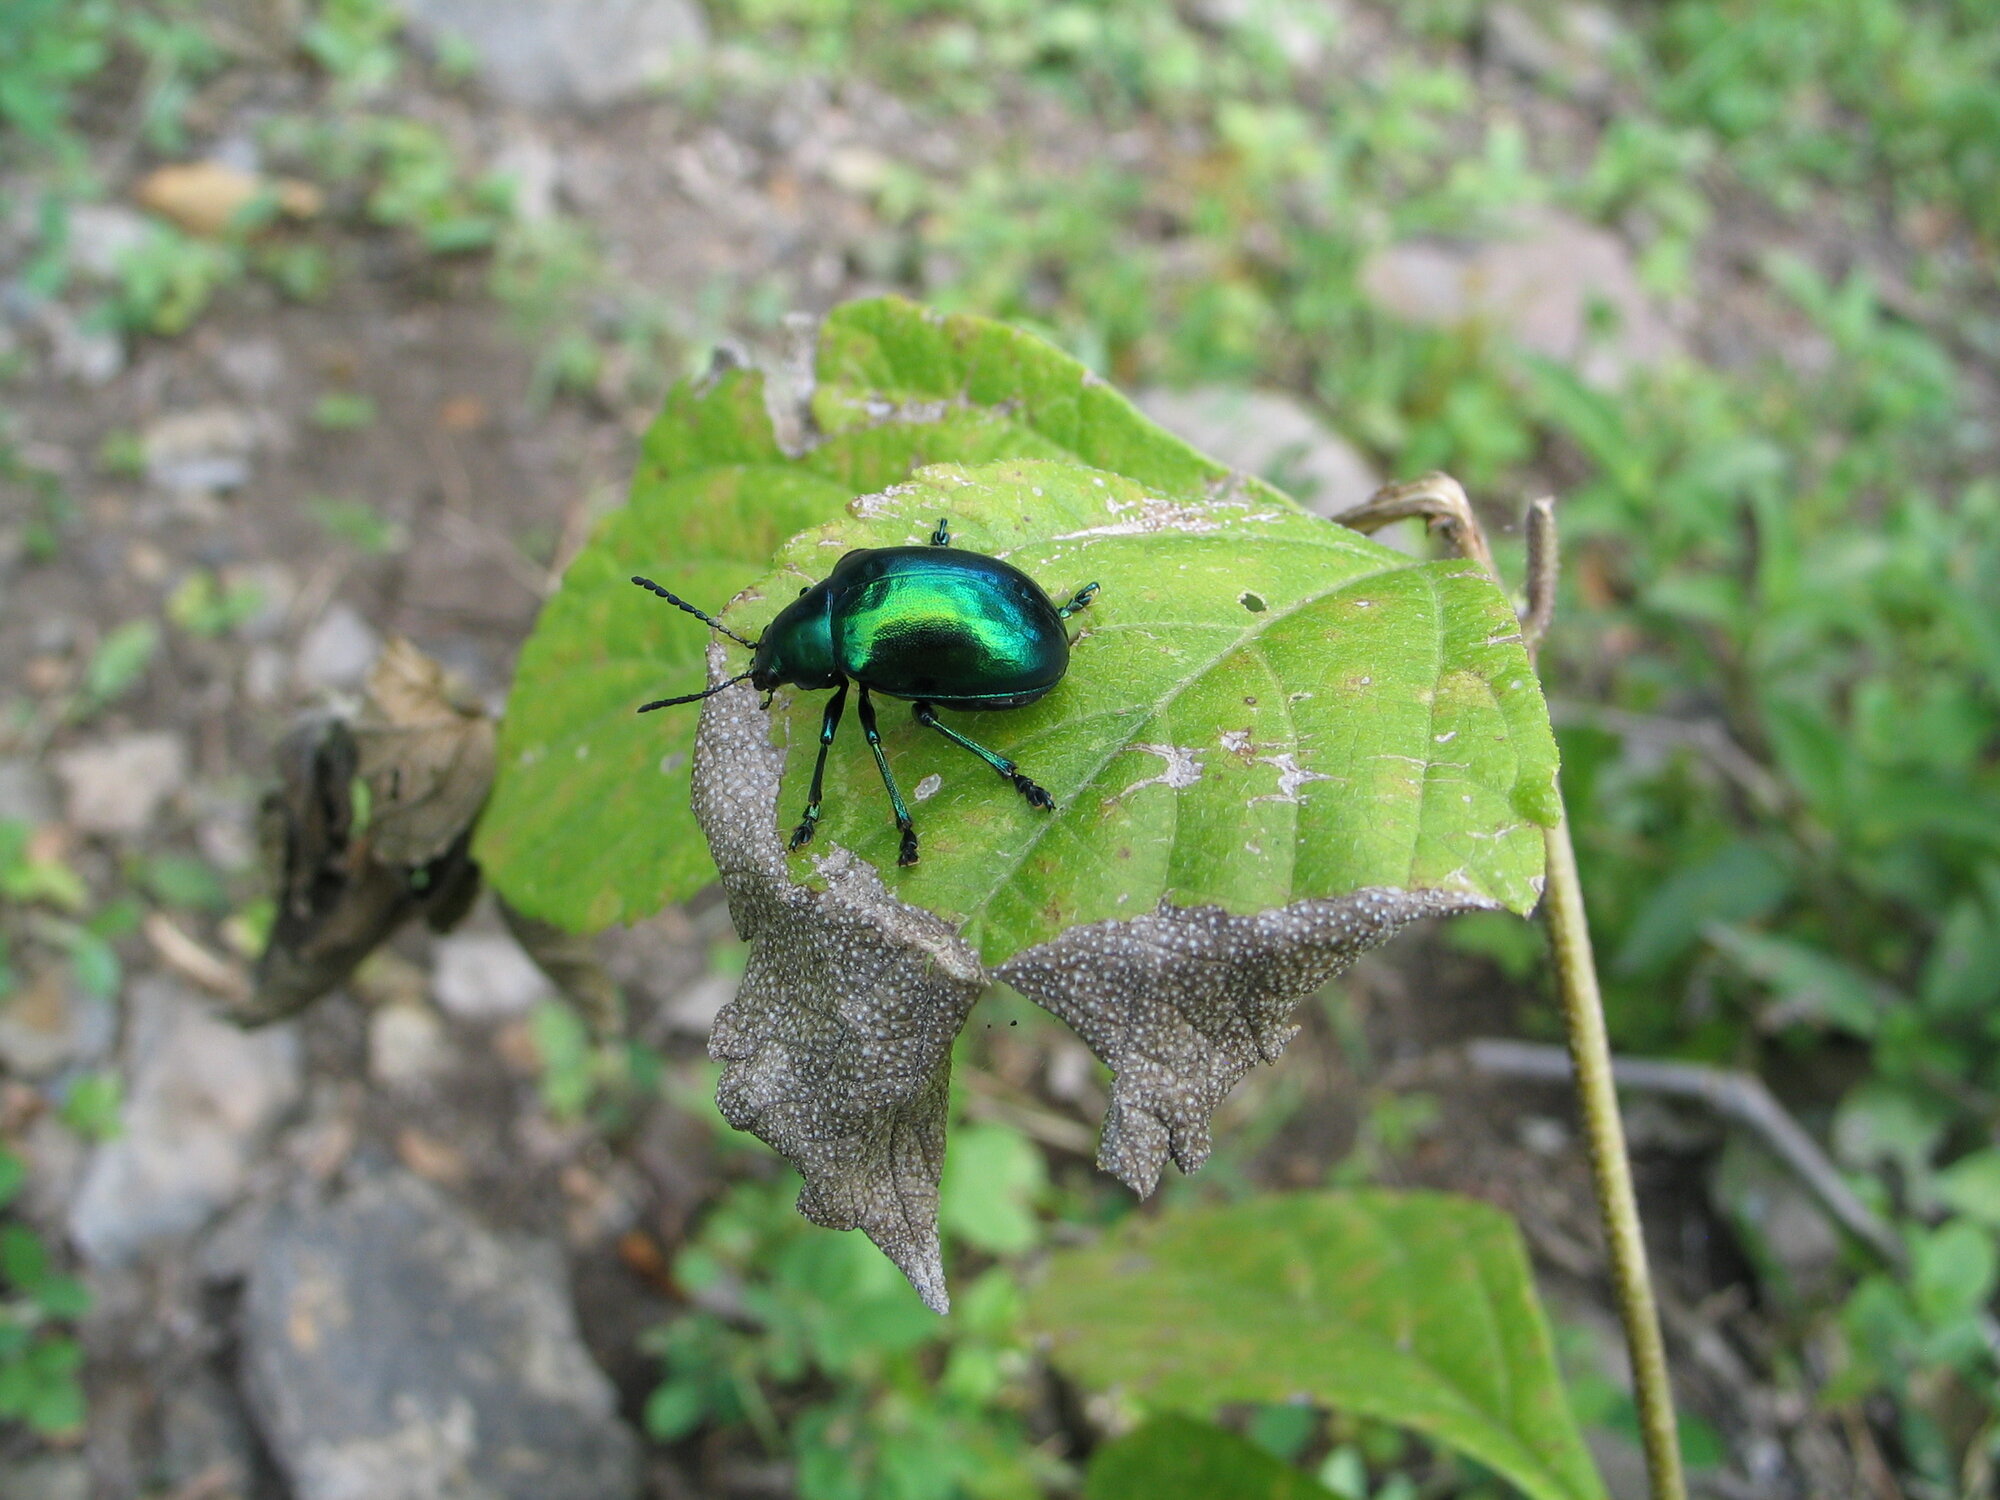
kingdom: Animalia
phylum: Arthropoda
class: Insecta
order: Coleoptera
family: Chrysomelidae
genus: Eumolpus
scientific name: Eumolpus robustus
